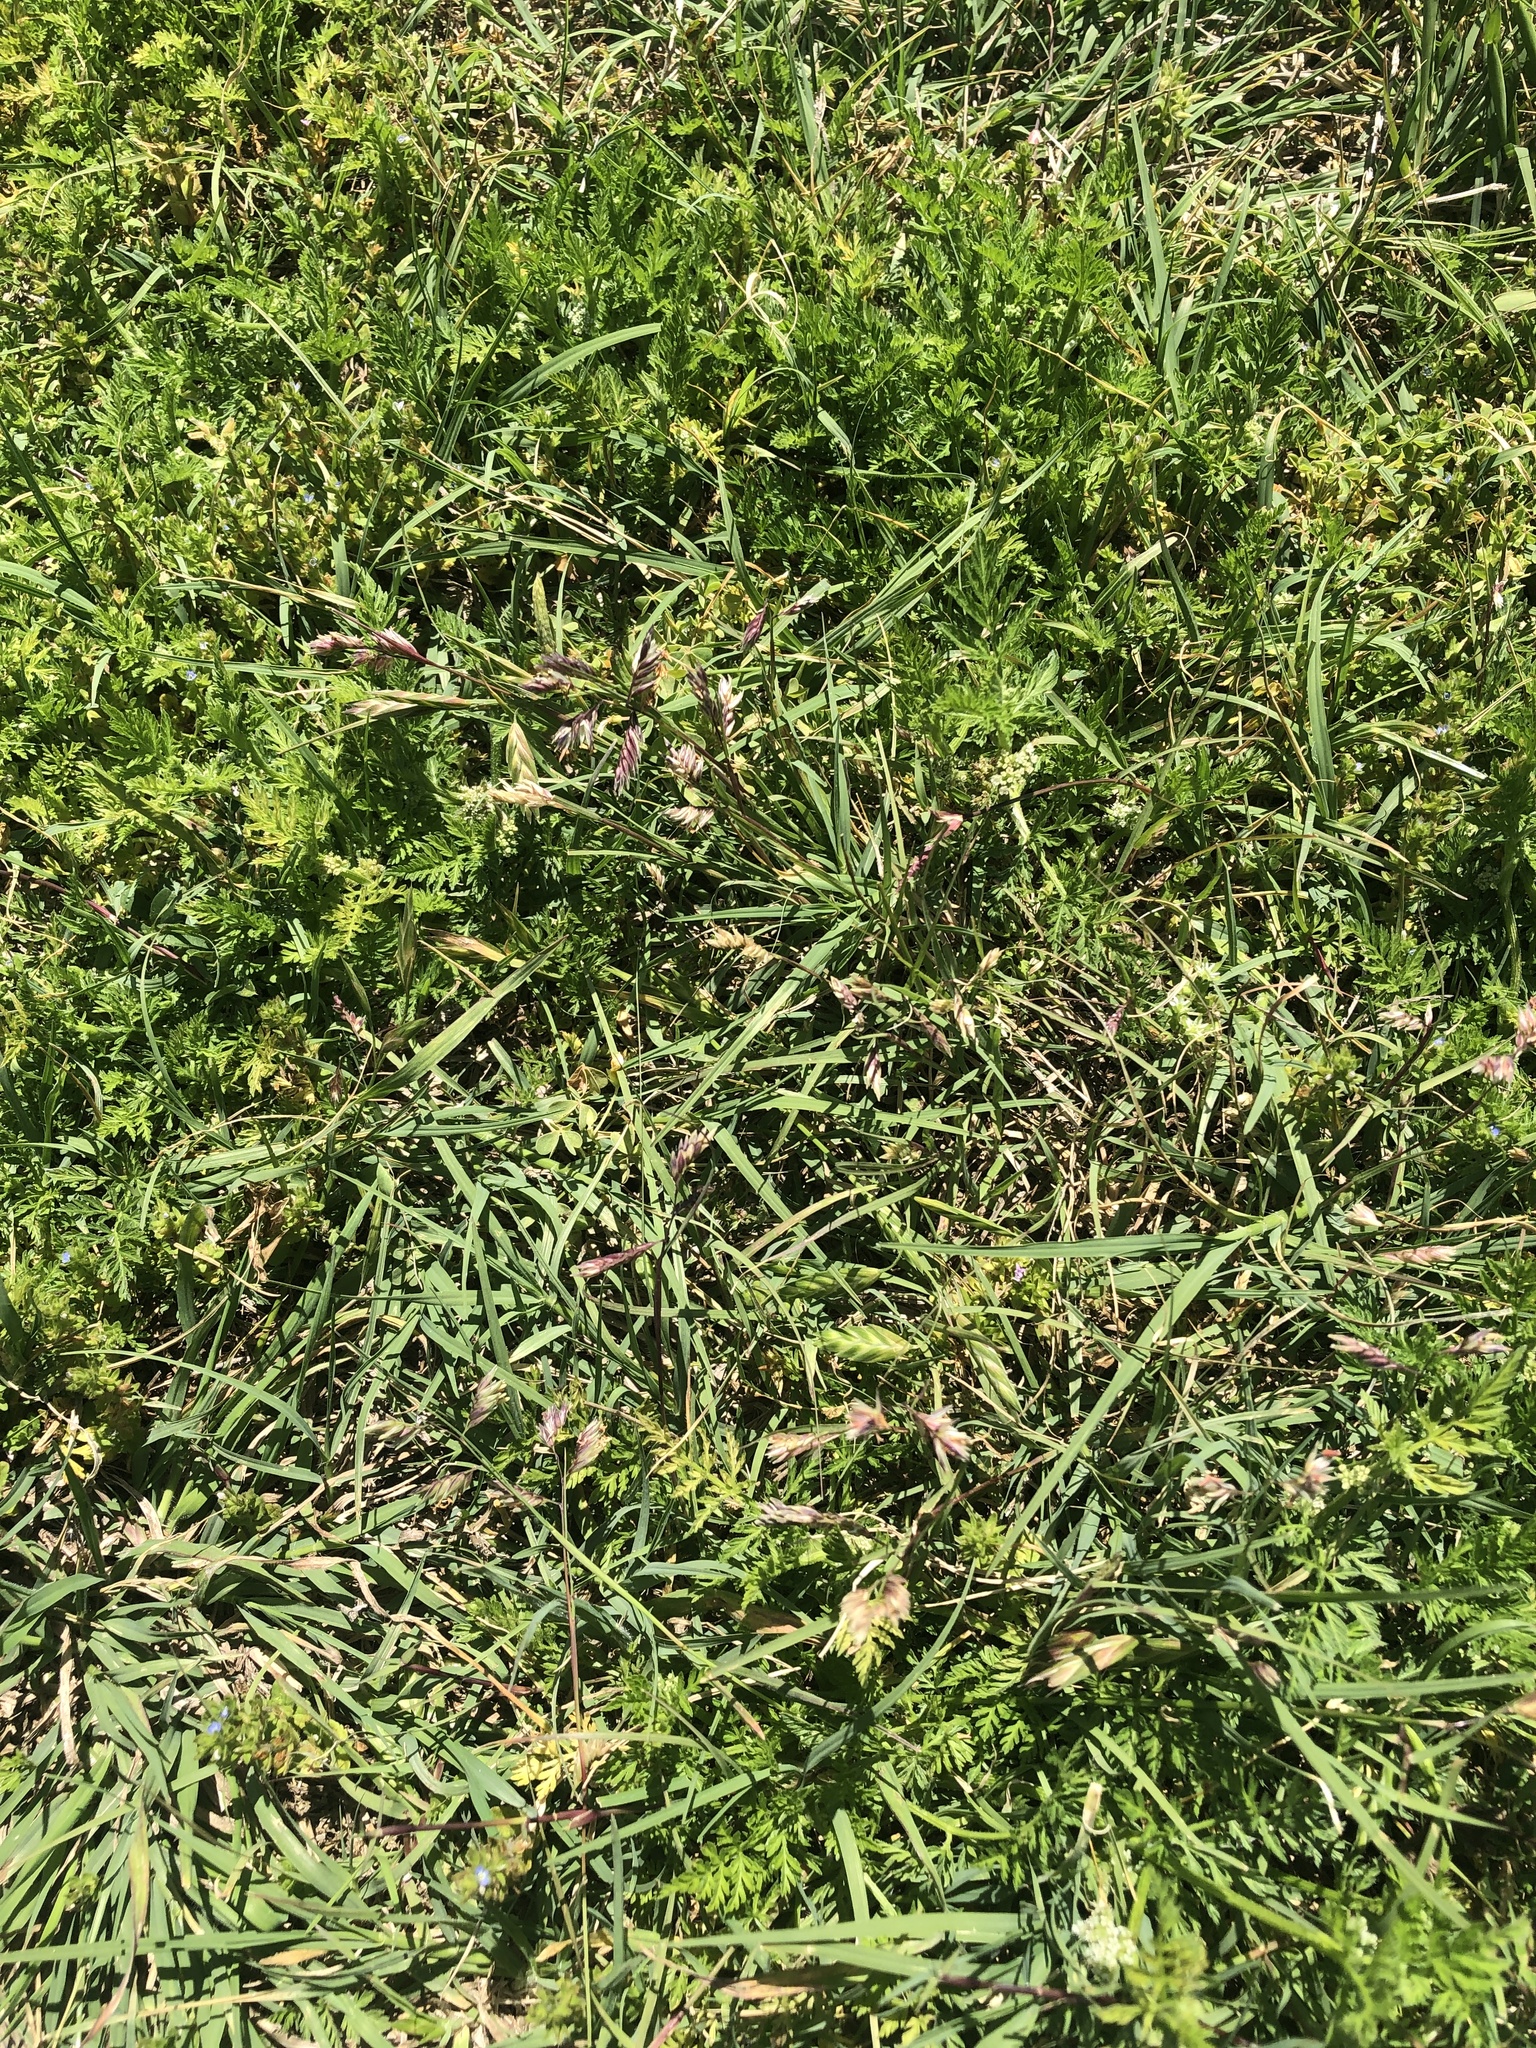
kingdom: Plantae
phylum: Tracheophyta
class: Liliopsida
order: Poales
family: Poaceae
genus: Bouteloua
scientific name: Bouteloua dactyloides
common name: Buffalo grass
